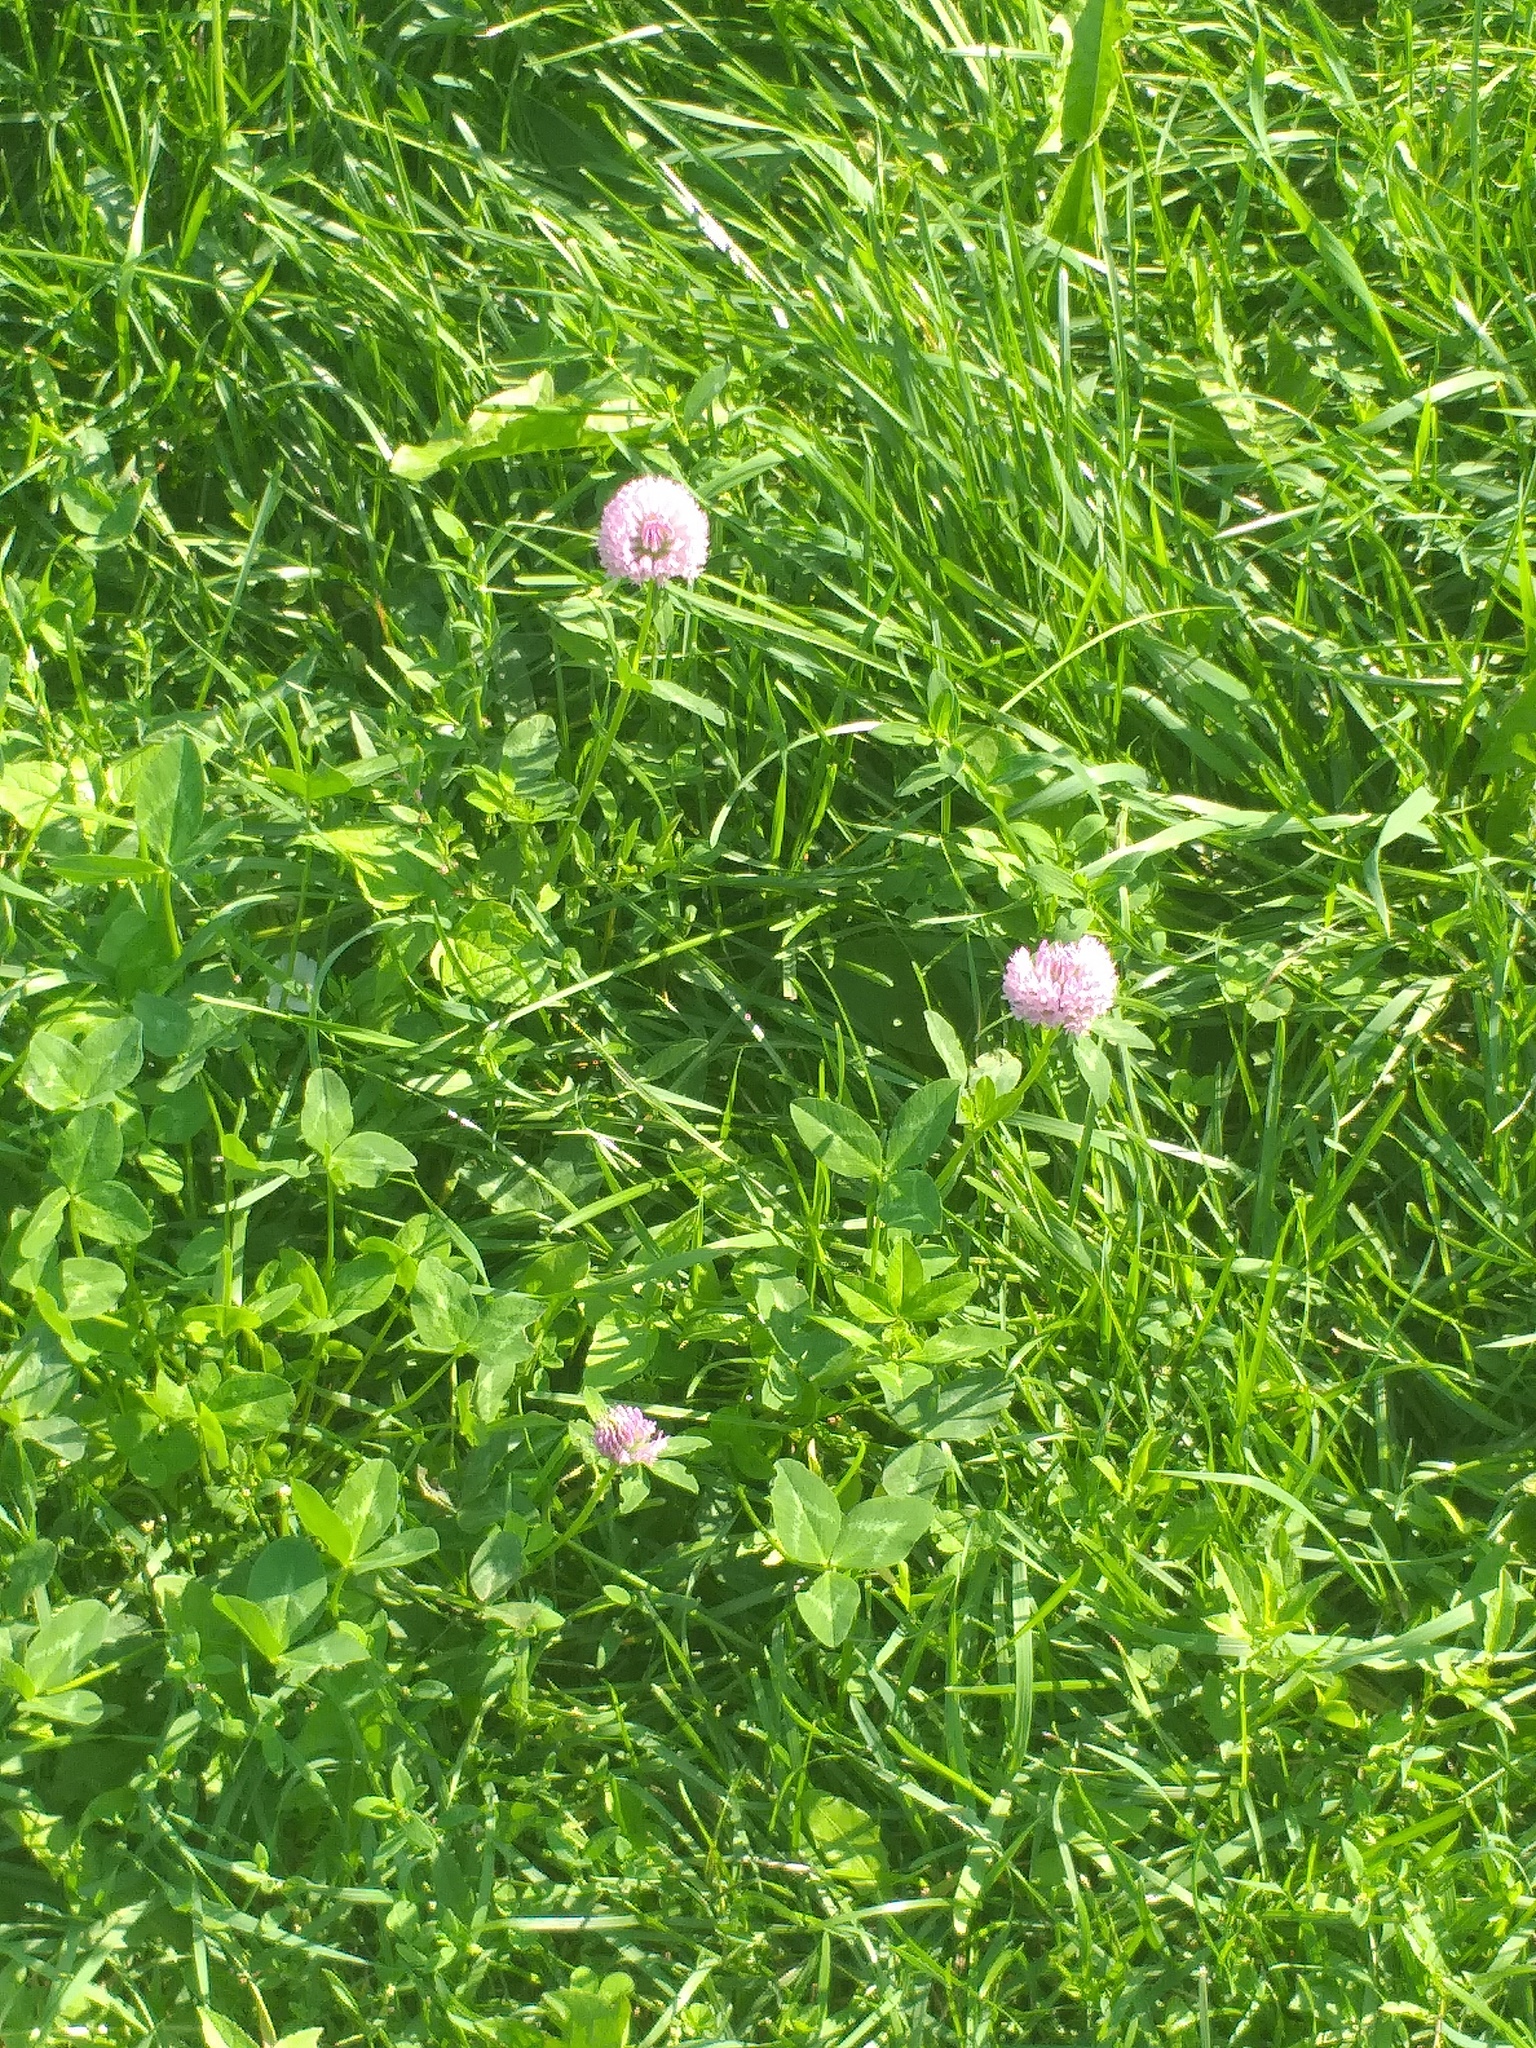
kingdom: Plantae
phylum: Tracheophyta
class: Magnoliopsida
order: Fabales
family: Fabaceae
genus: Trifolium
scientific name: Trifolium pratense
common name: Red clover
